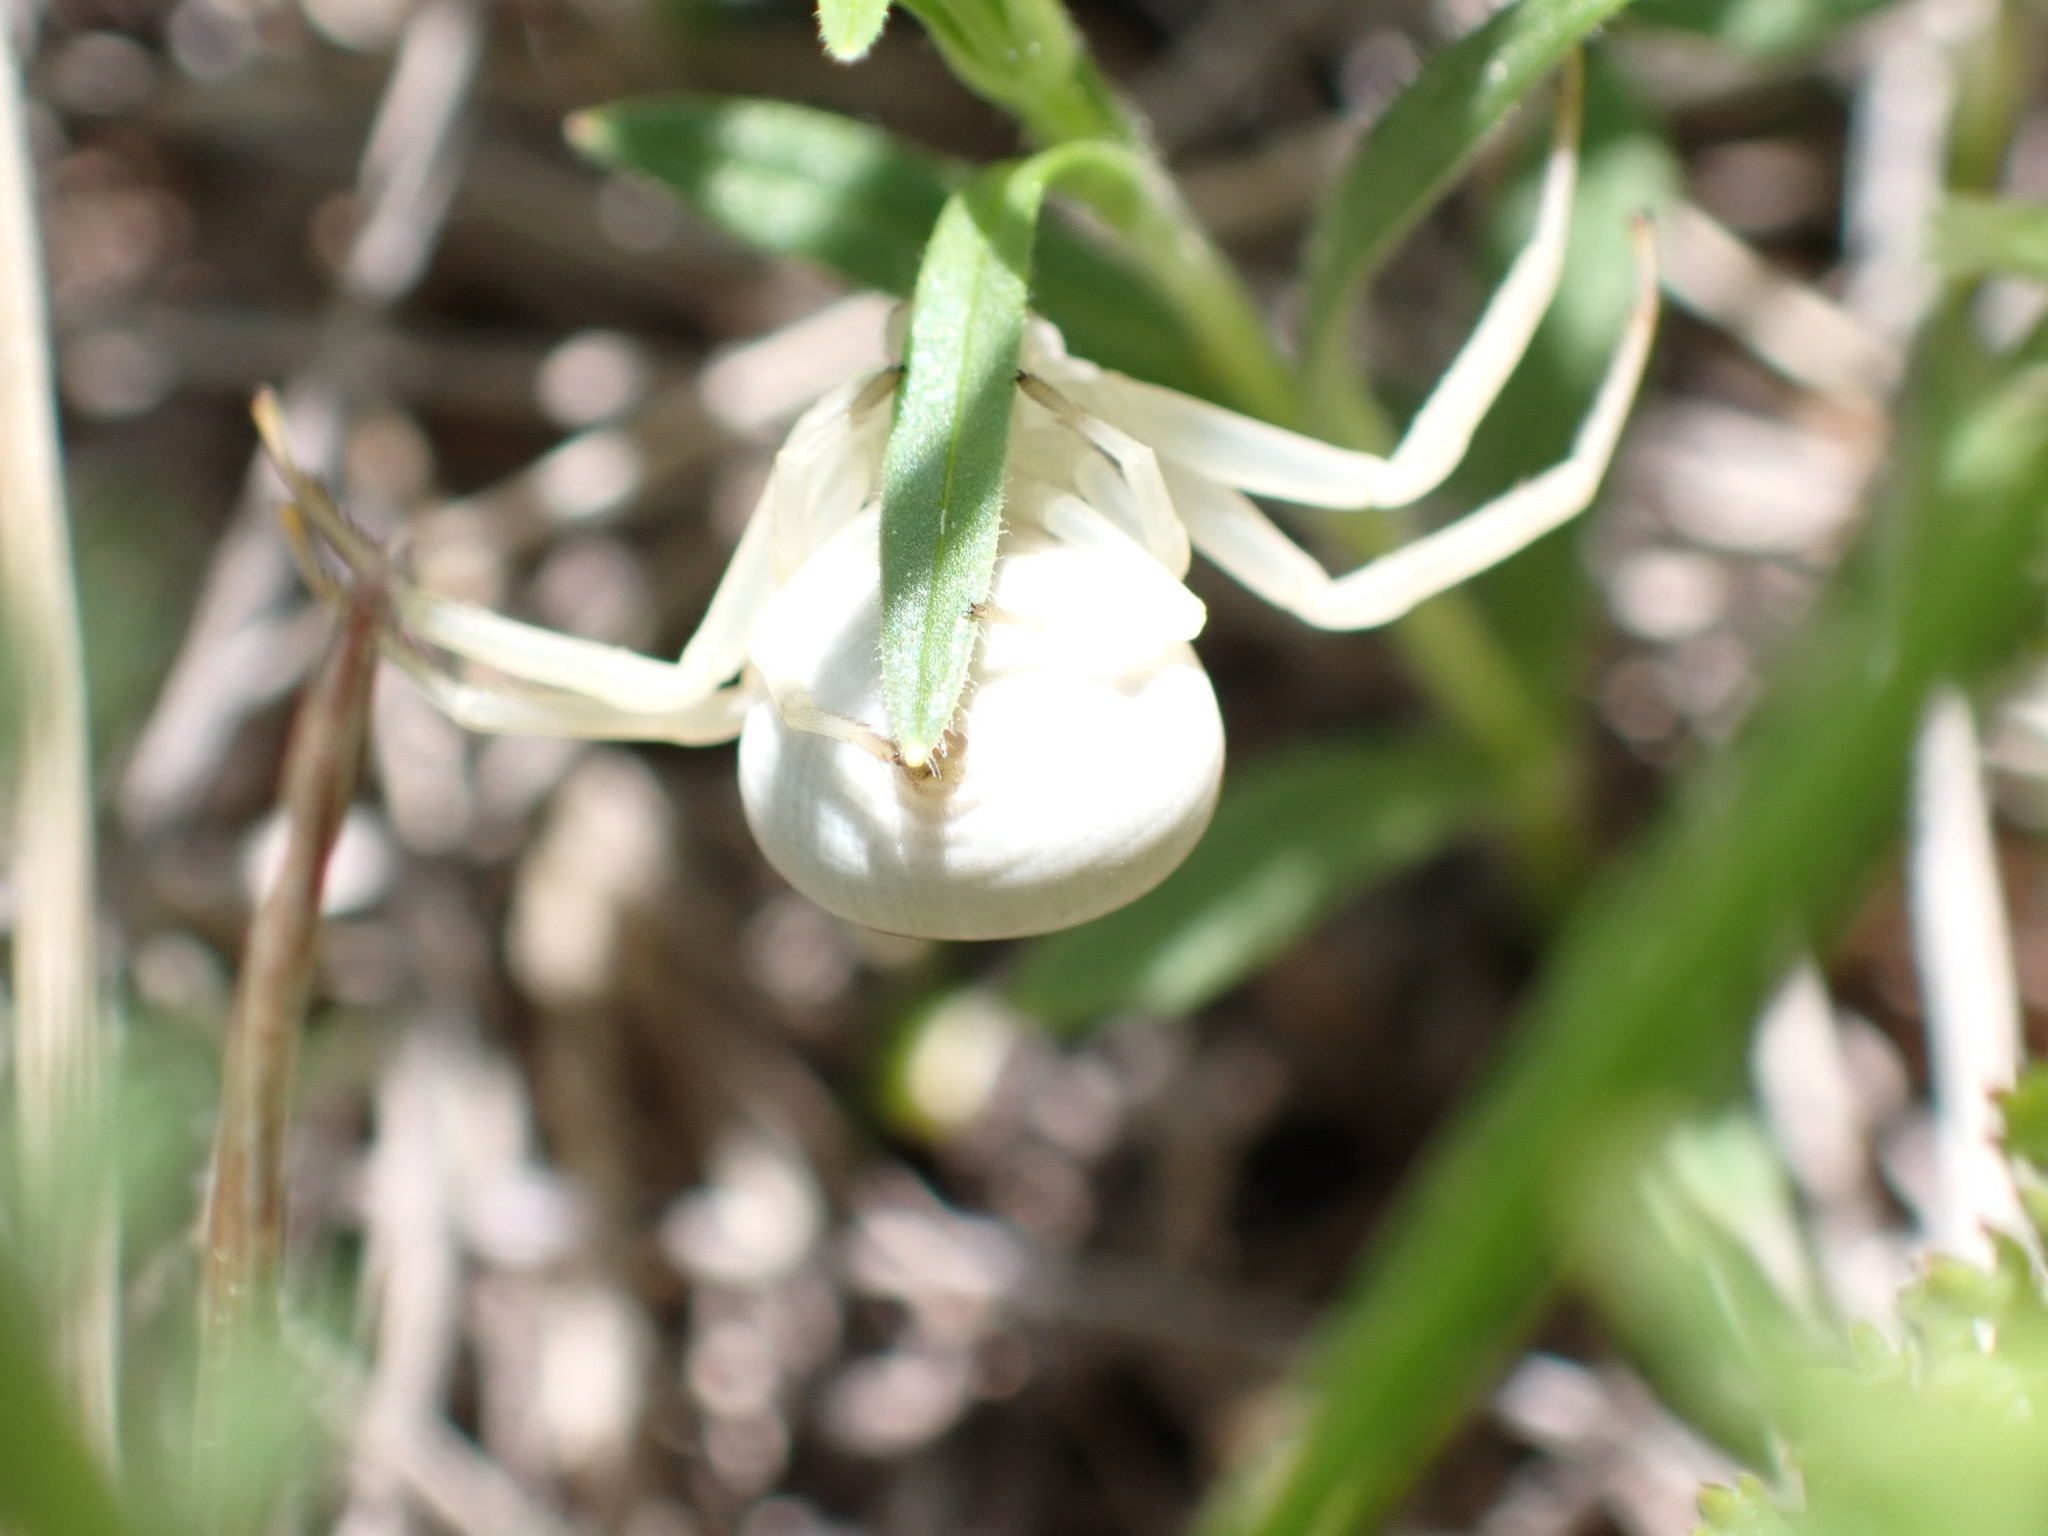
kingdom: Animalia
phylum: Arthropoda
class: Arachnida
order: Araneae
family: Thomisidae
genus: Misumena
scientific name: Misumena vatia
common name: Goldenrod crab spider
